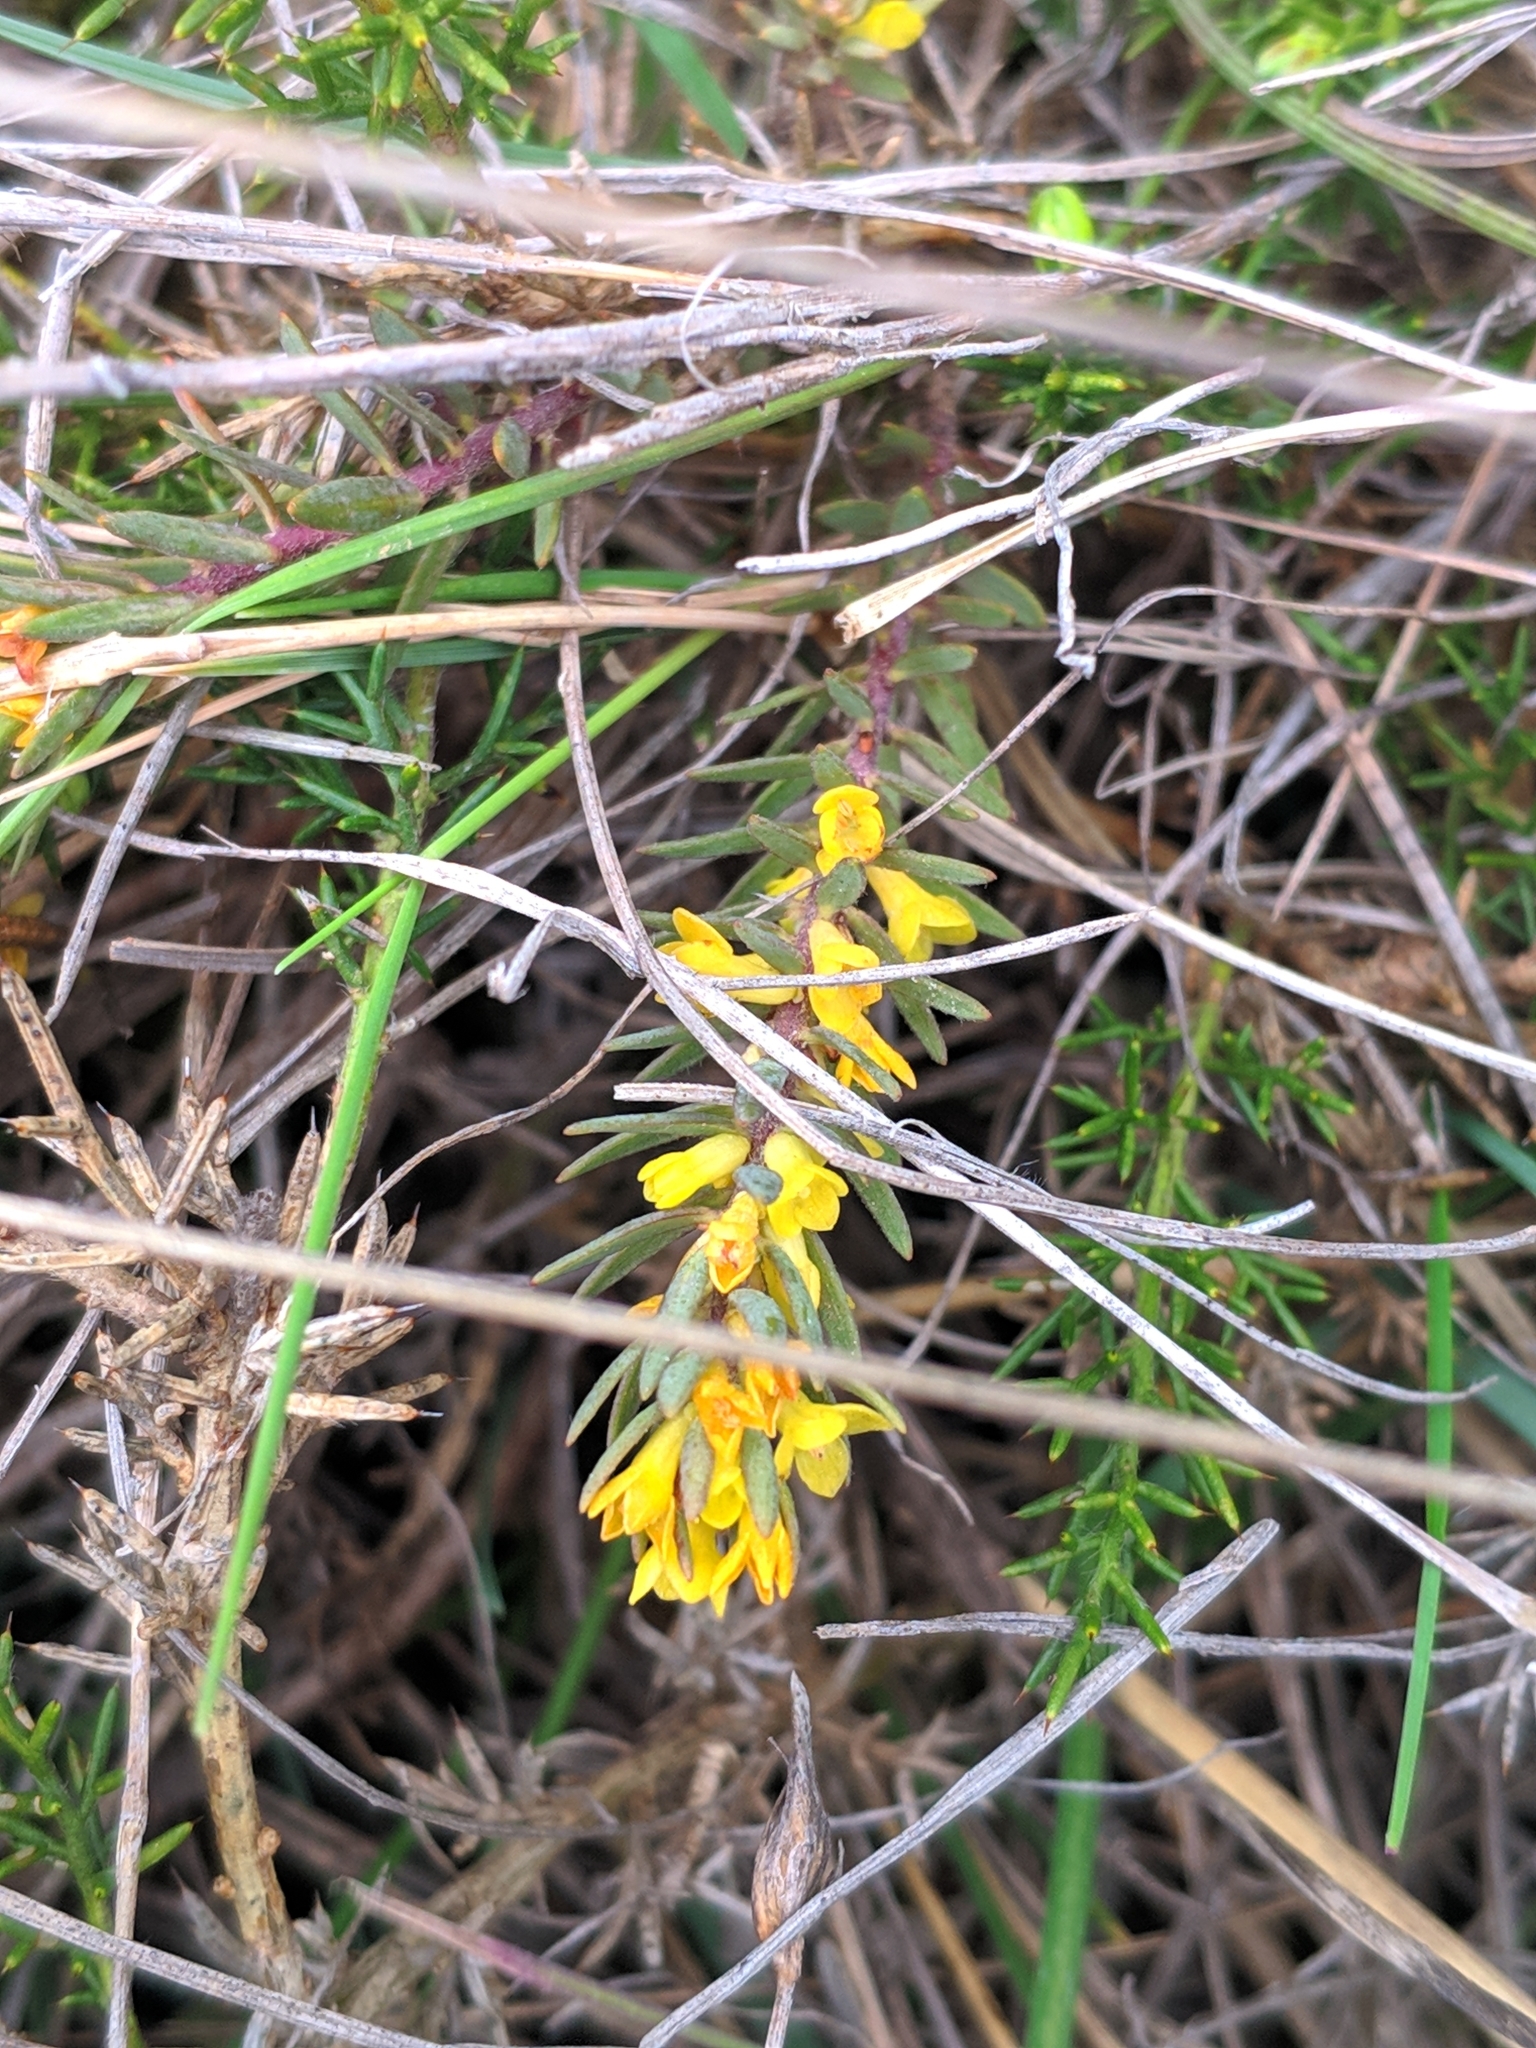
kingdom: Plantae
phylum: Tracheophyta
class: Magnoliopsida
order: Malvales
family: Thymelaeaceae
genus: Thymelaea
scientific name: Thymelaea ruizii
